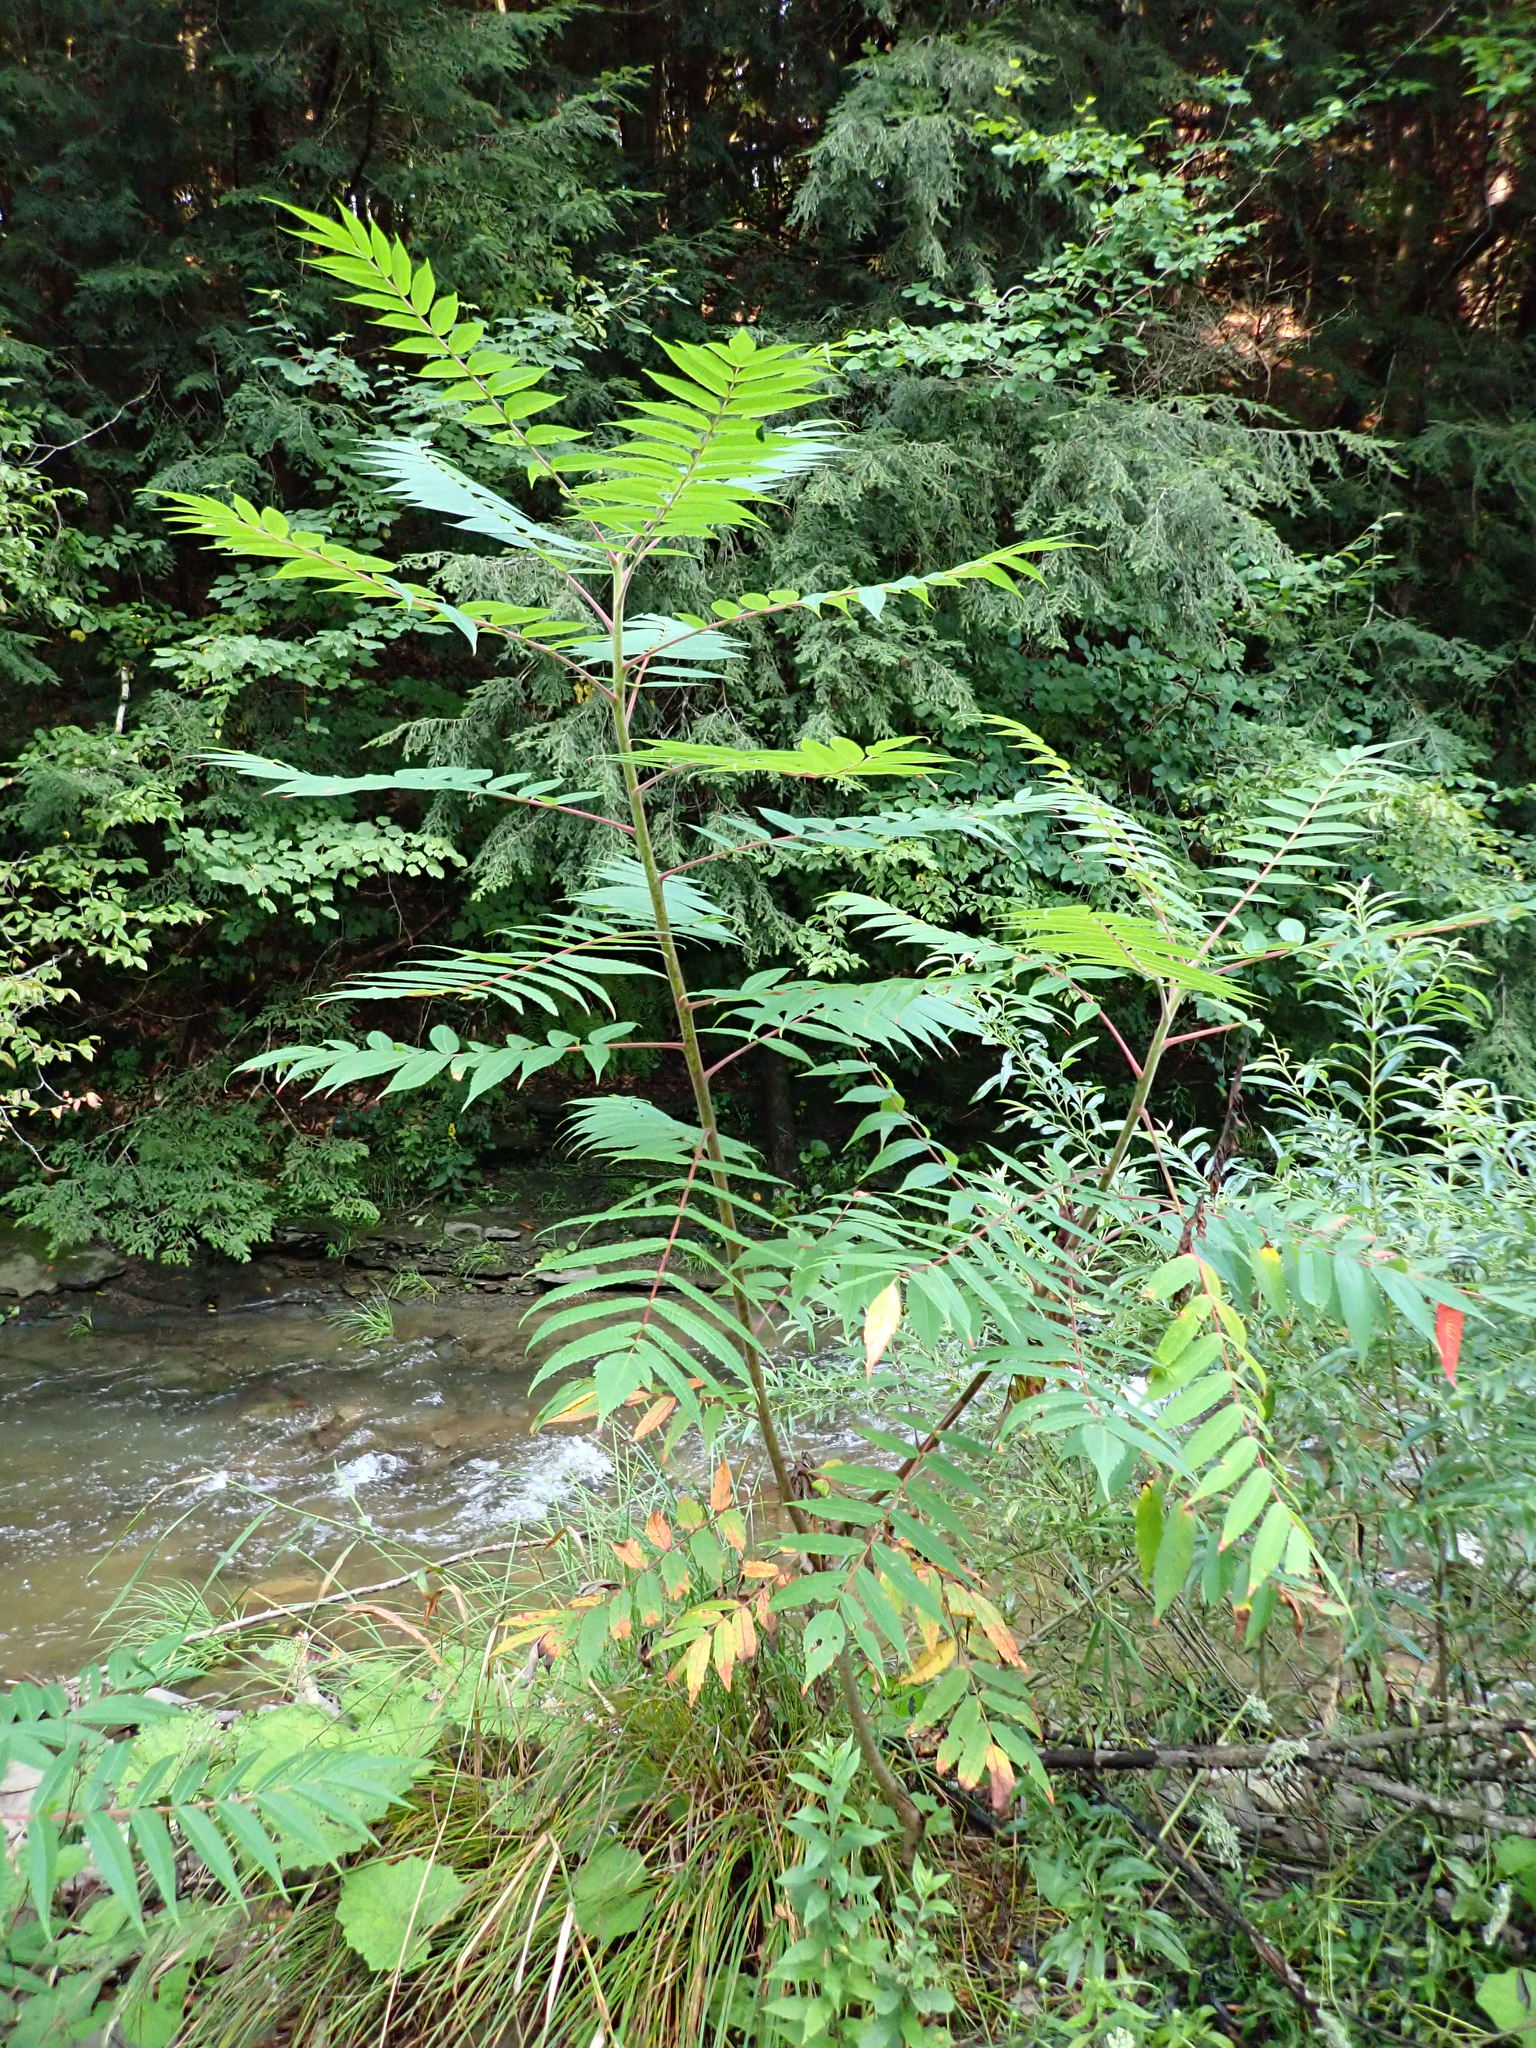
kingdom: Plantae
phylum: Tracheophyta
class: Magnoliopsida
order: Sapindales
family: Anacardiaceae
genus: Rhus
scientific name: Rhus typhina
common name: Staghorn sumac
